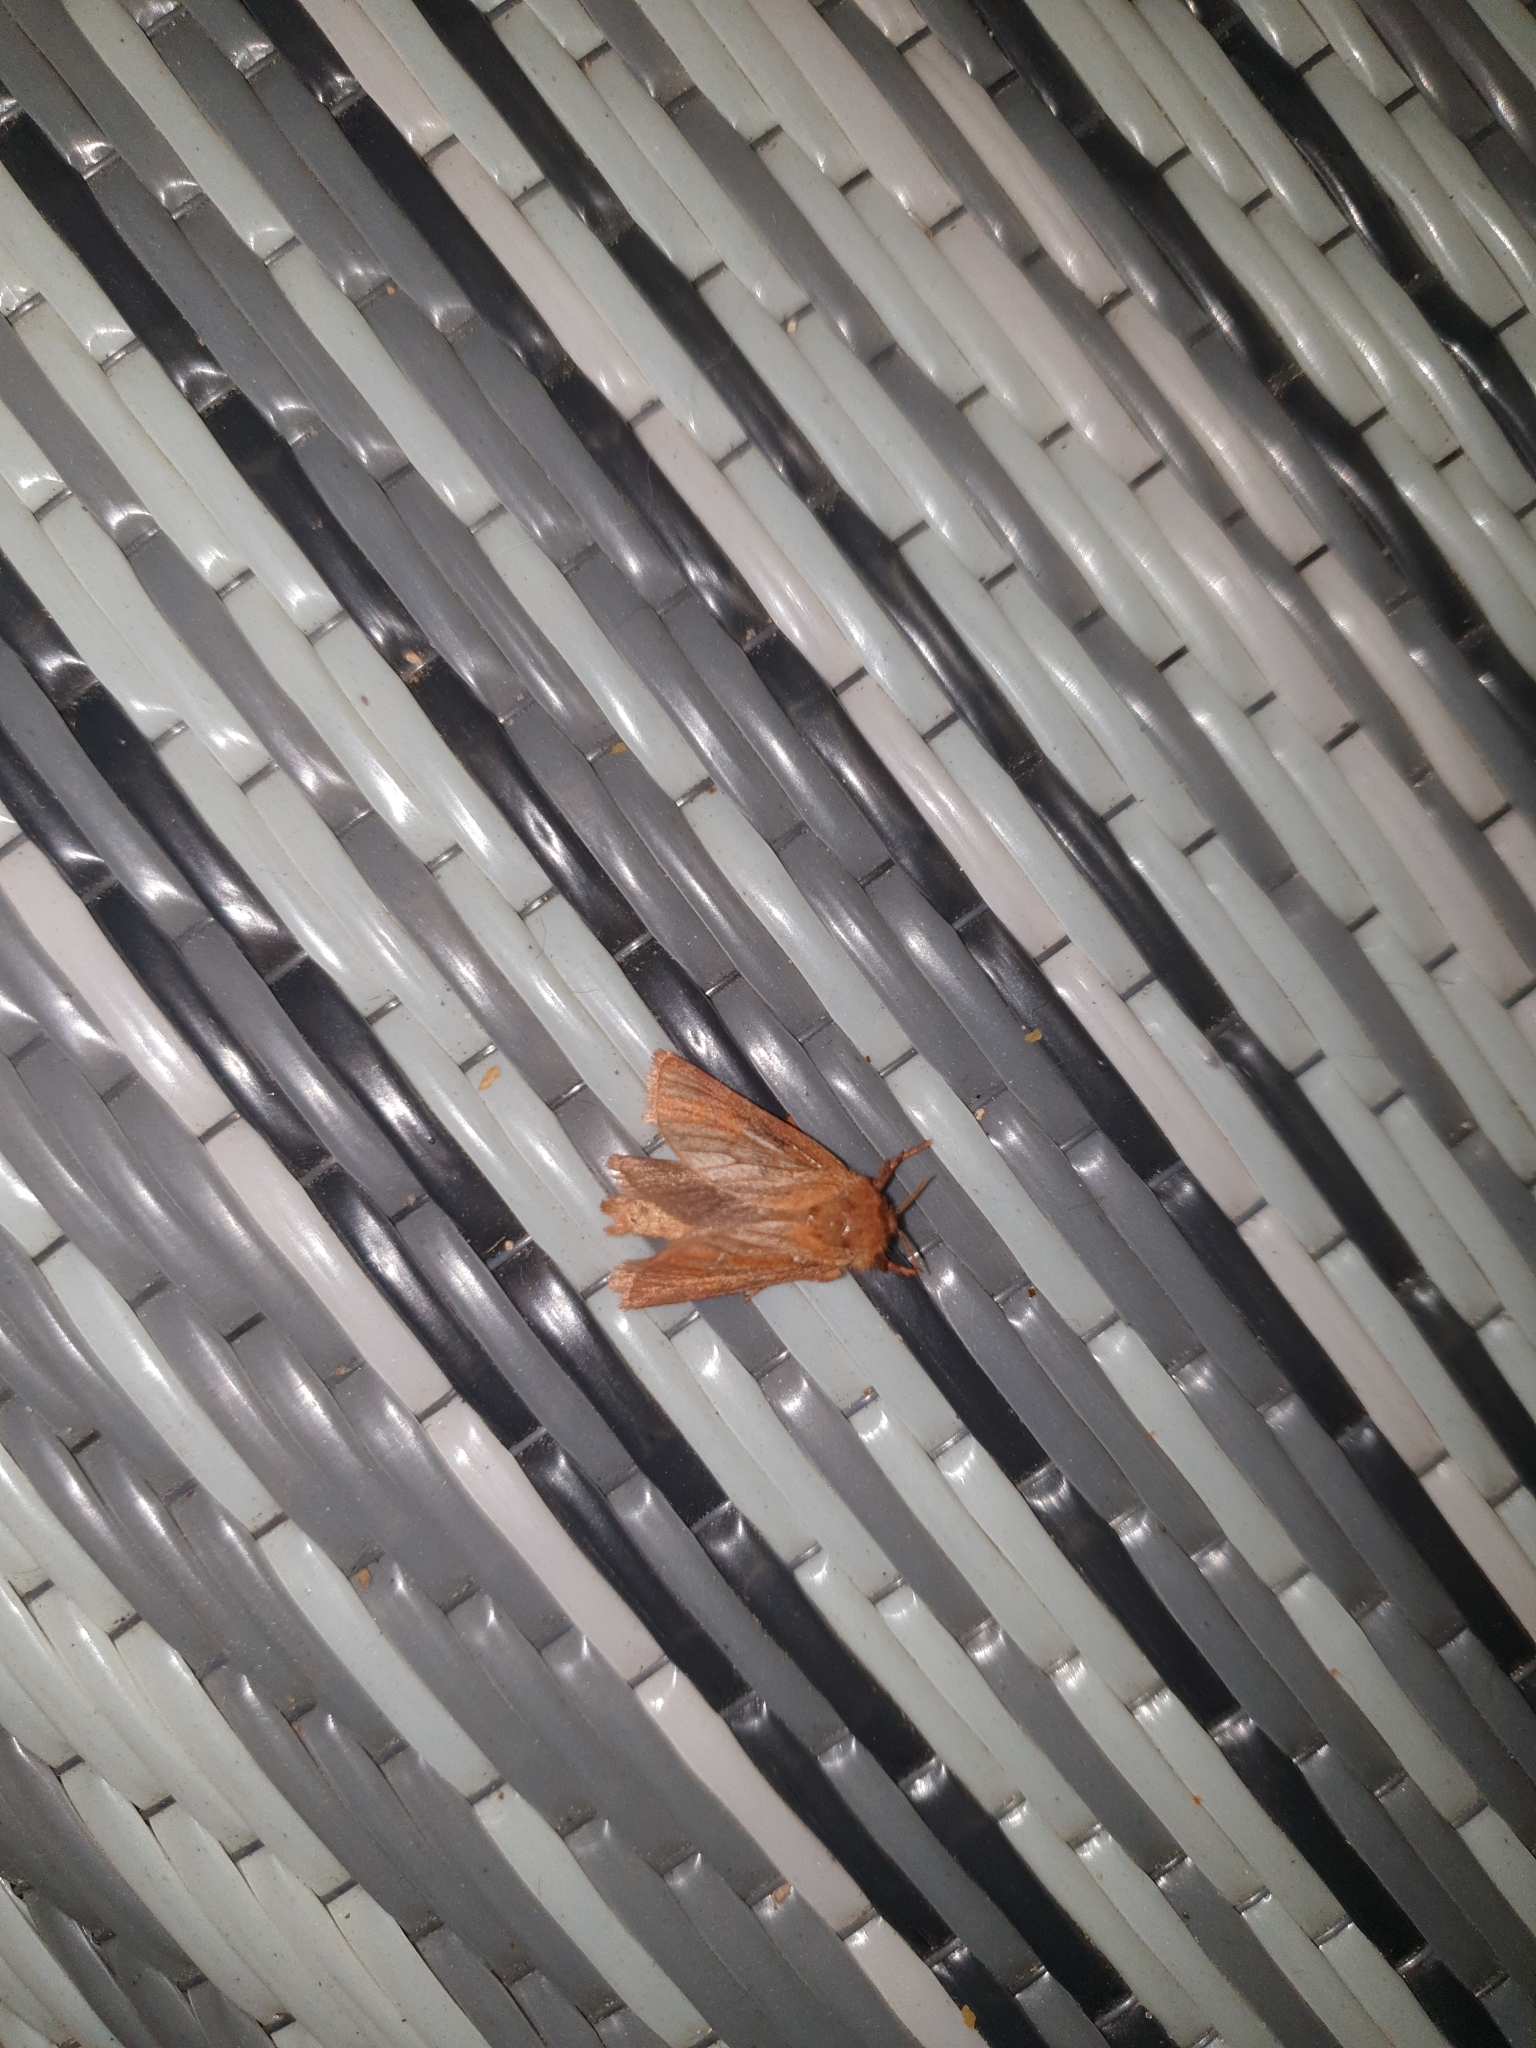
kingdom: Animalia
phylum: Arthropoda
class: Insecta
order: Lepidoptera
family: Hepialidae
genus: Triodia
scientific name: Triodia sylvina
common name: Orange swift
